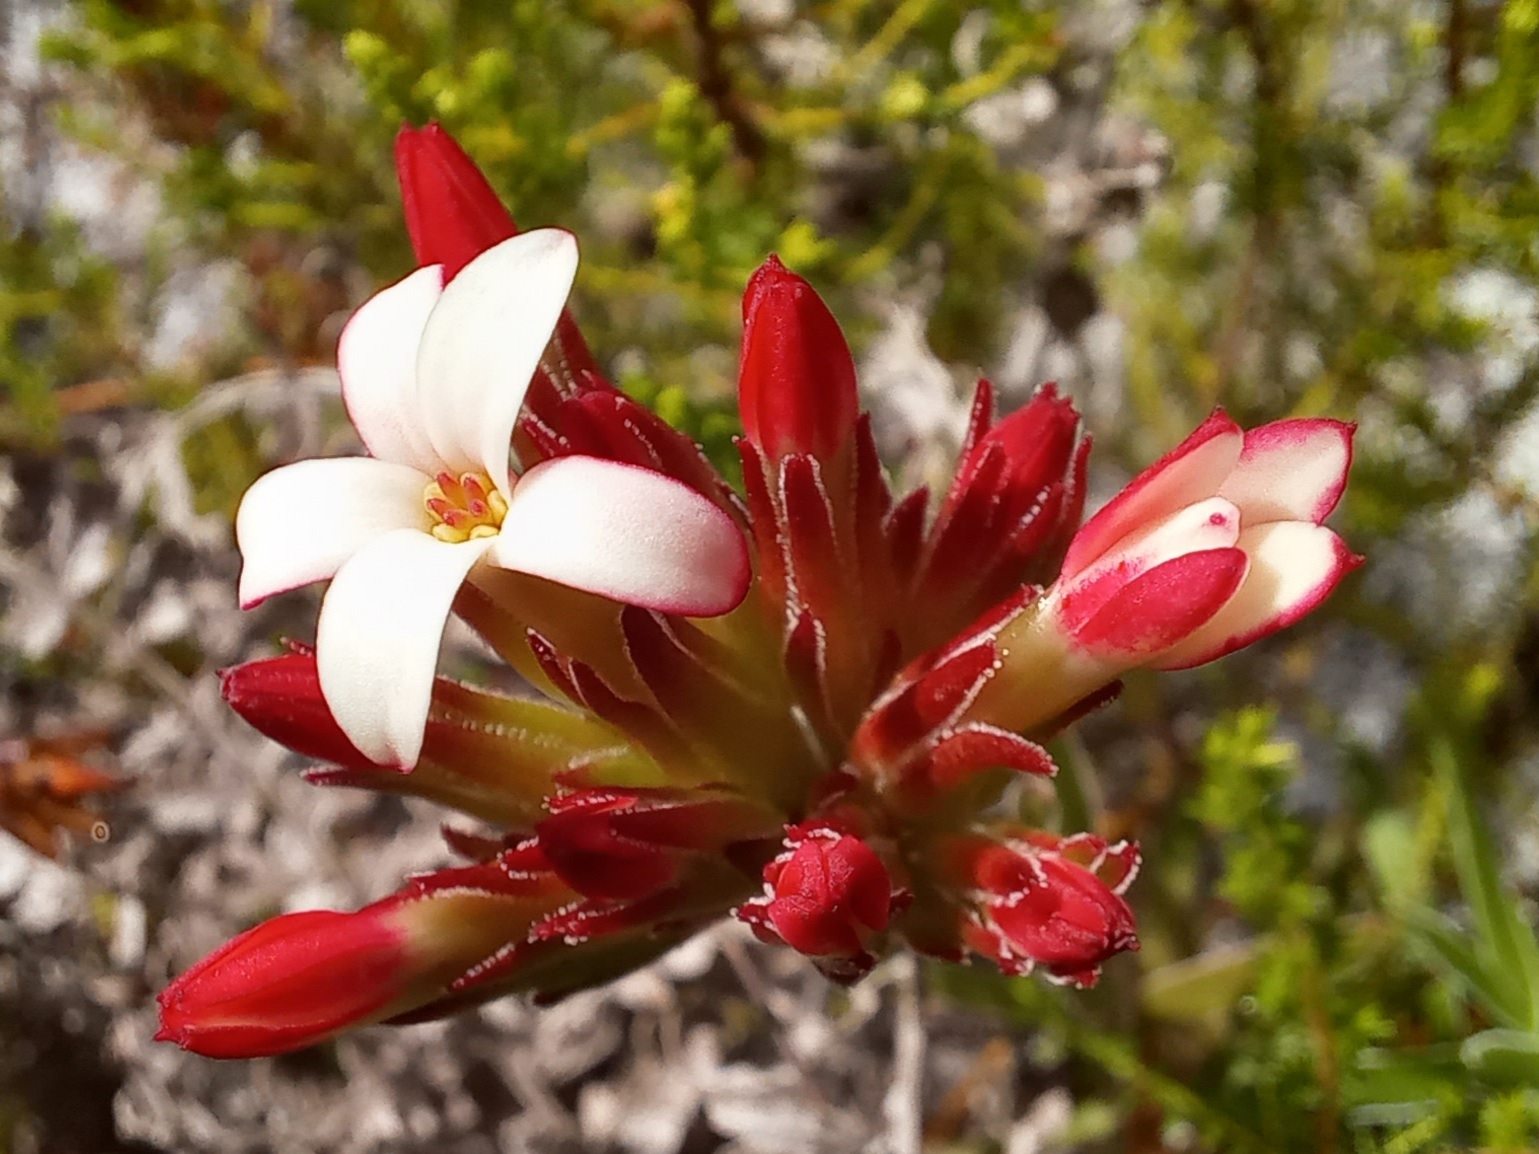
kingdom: Plantae
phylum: Tracheophyta
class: Magnoliopsida
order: Saxifragales
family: Crassulaceae
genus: Crassula
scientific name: Crassula fascicularis
